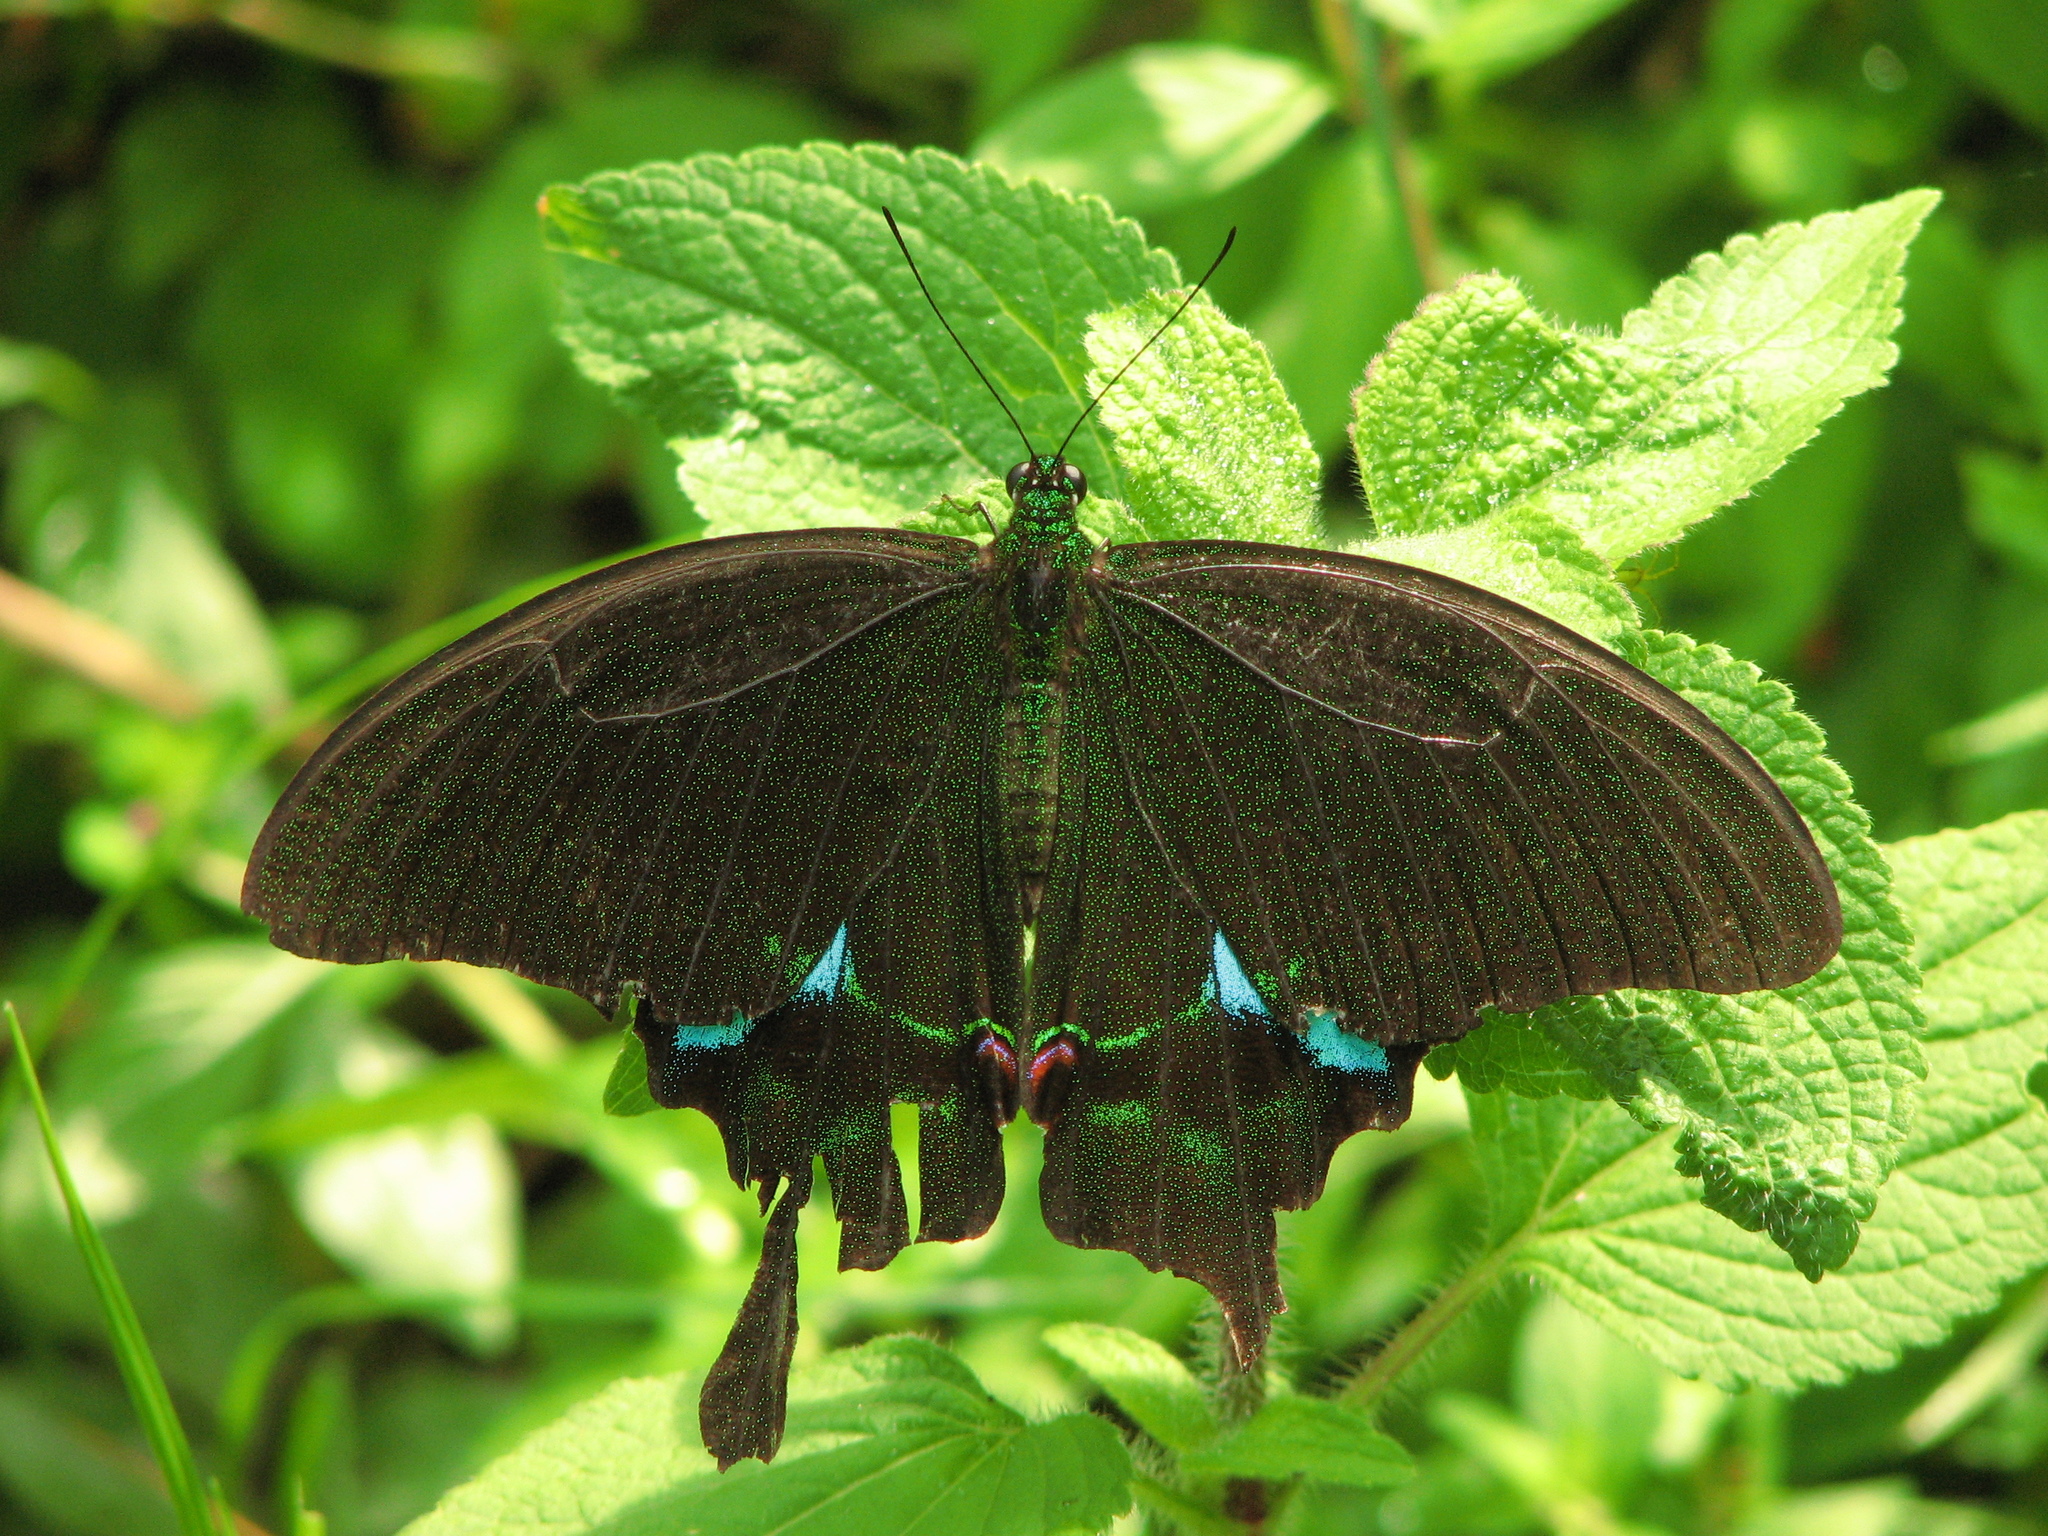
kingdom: Animalia
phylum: Arthropoda
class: Insecta
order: Lepidoptera
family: Papilionidae
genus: Papilio
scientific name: Papilio paris
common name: Paris peacock
